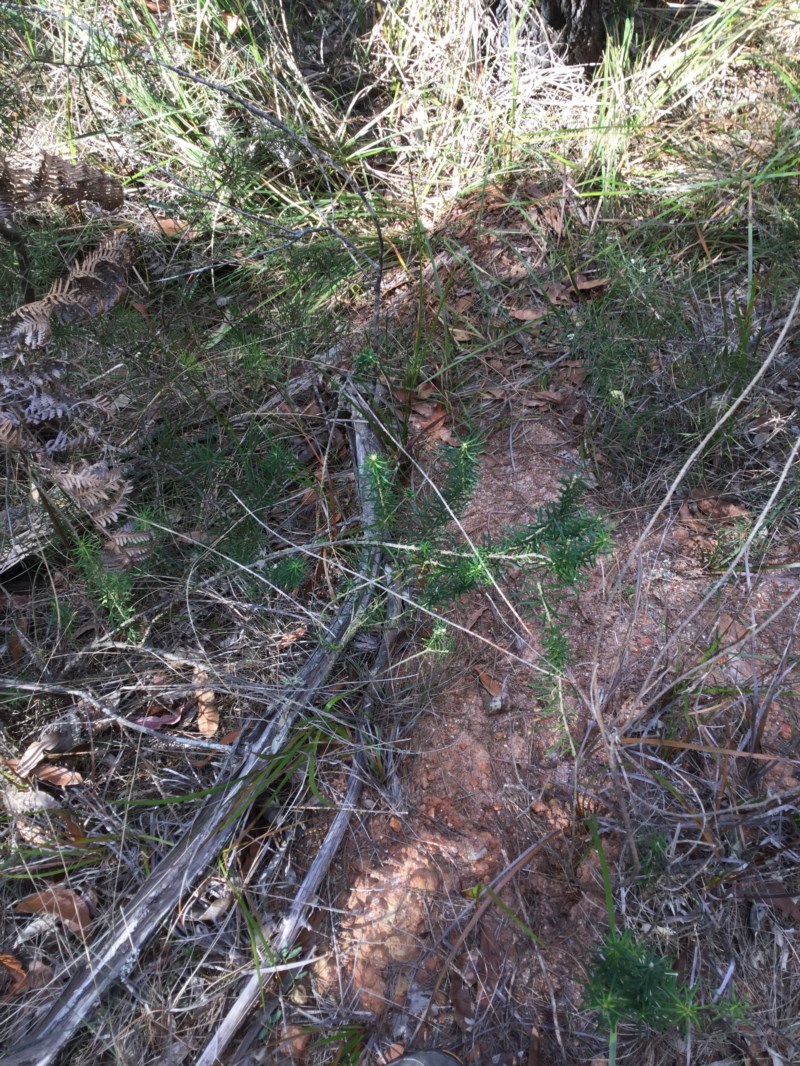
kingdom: Plantae
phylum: Tracheophyta
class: Magnoliopsida
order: Apiales
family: Araliaceae
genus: Astrotricha
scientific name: Astrotricha
